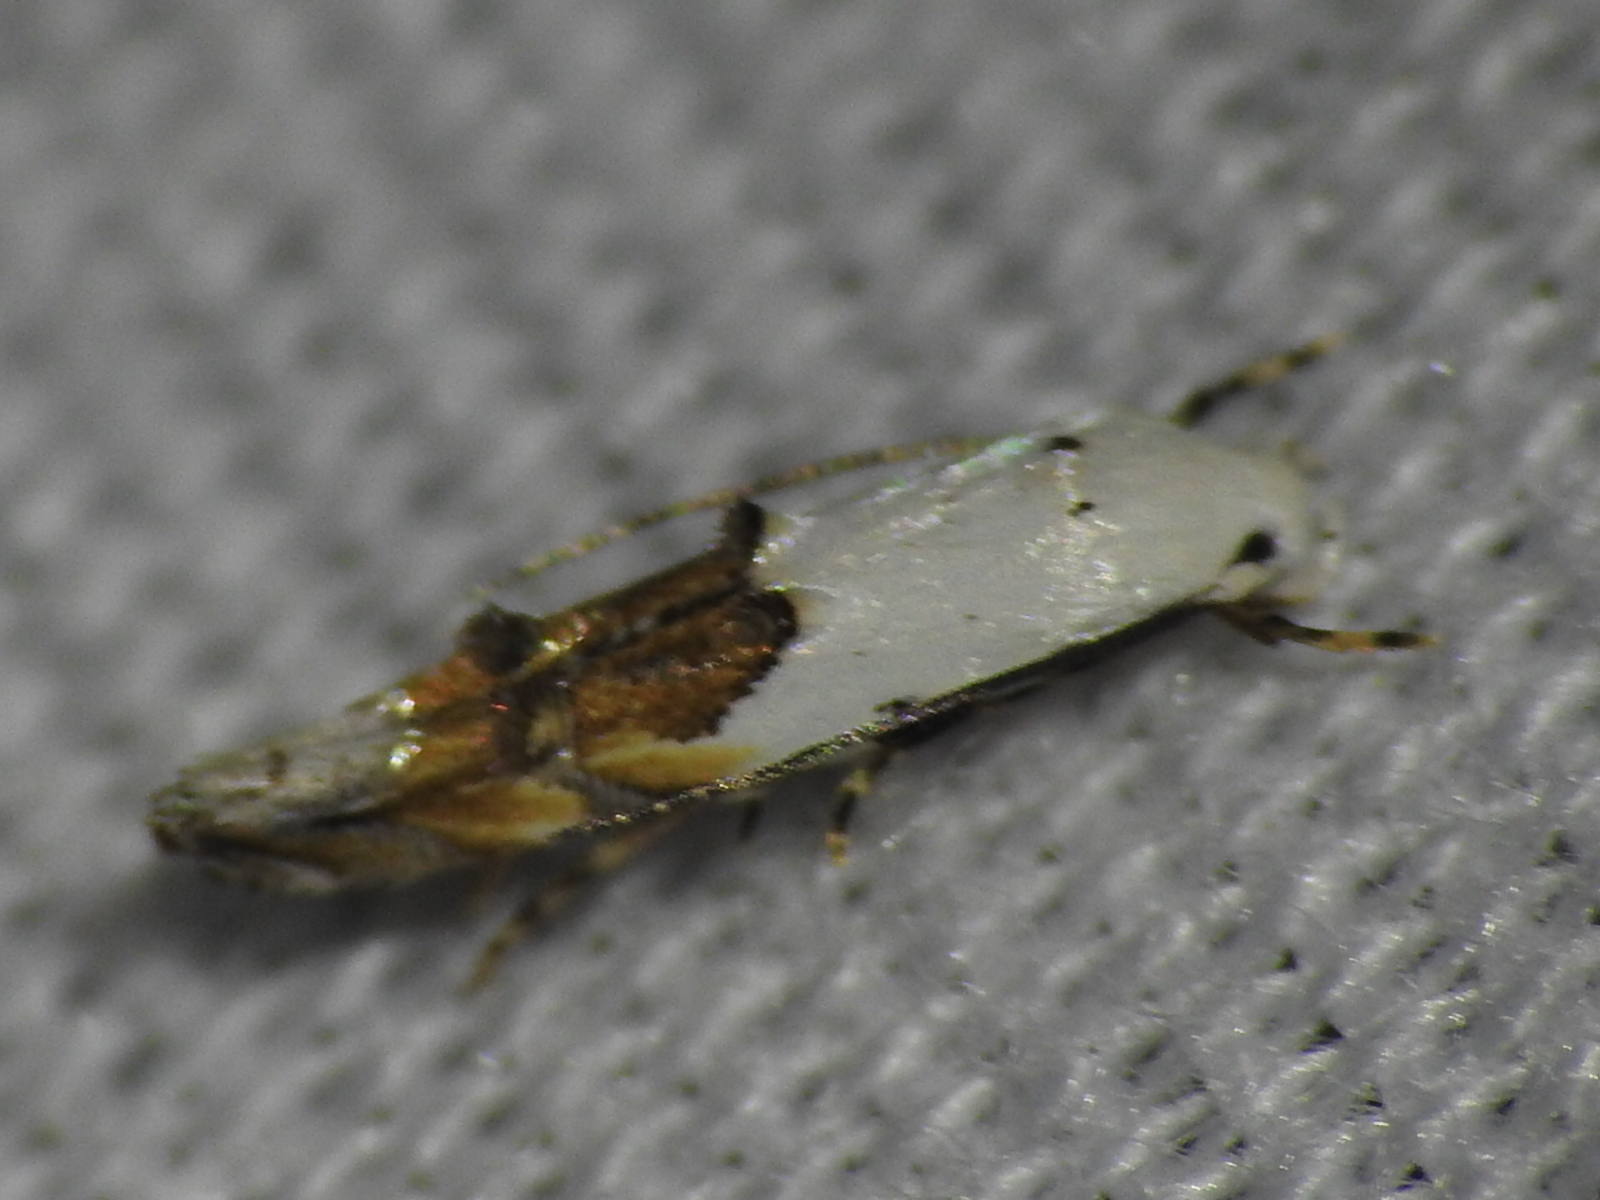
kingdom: Animalia
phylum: Arthropoda
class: Insecta
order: Lepidoptera
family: Momphidae
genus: Mompha
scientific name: Mompha bottimeri
